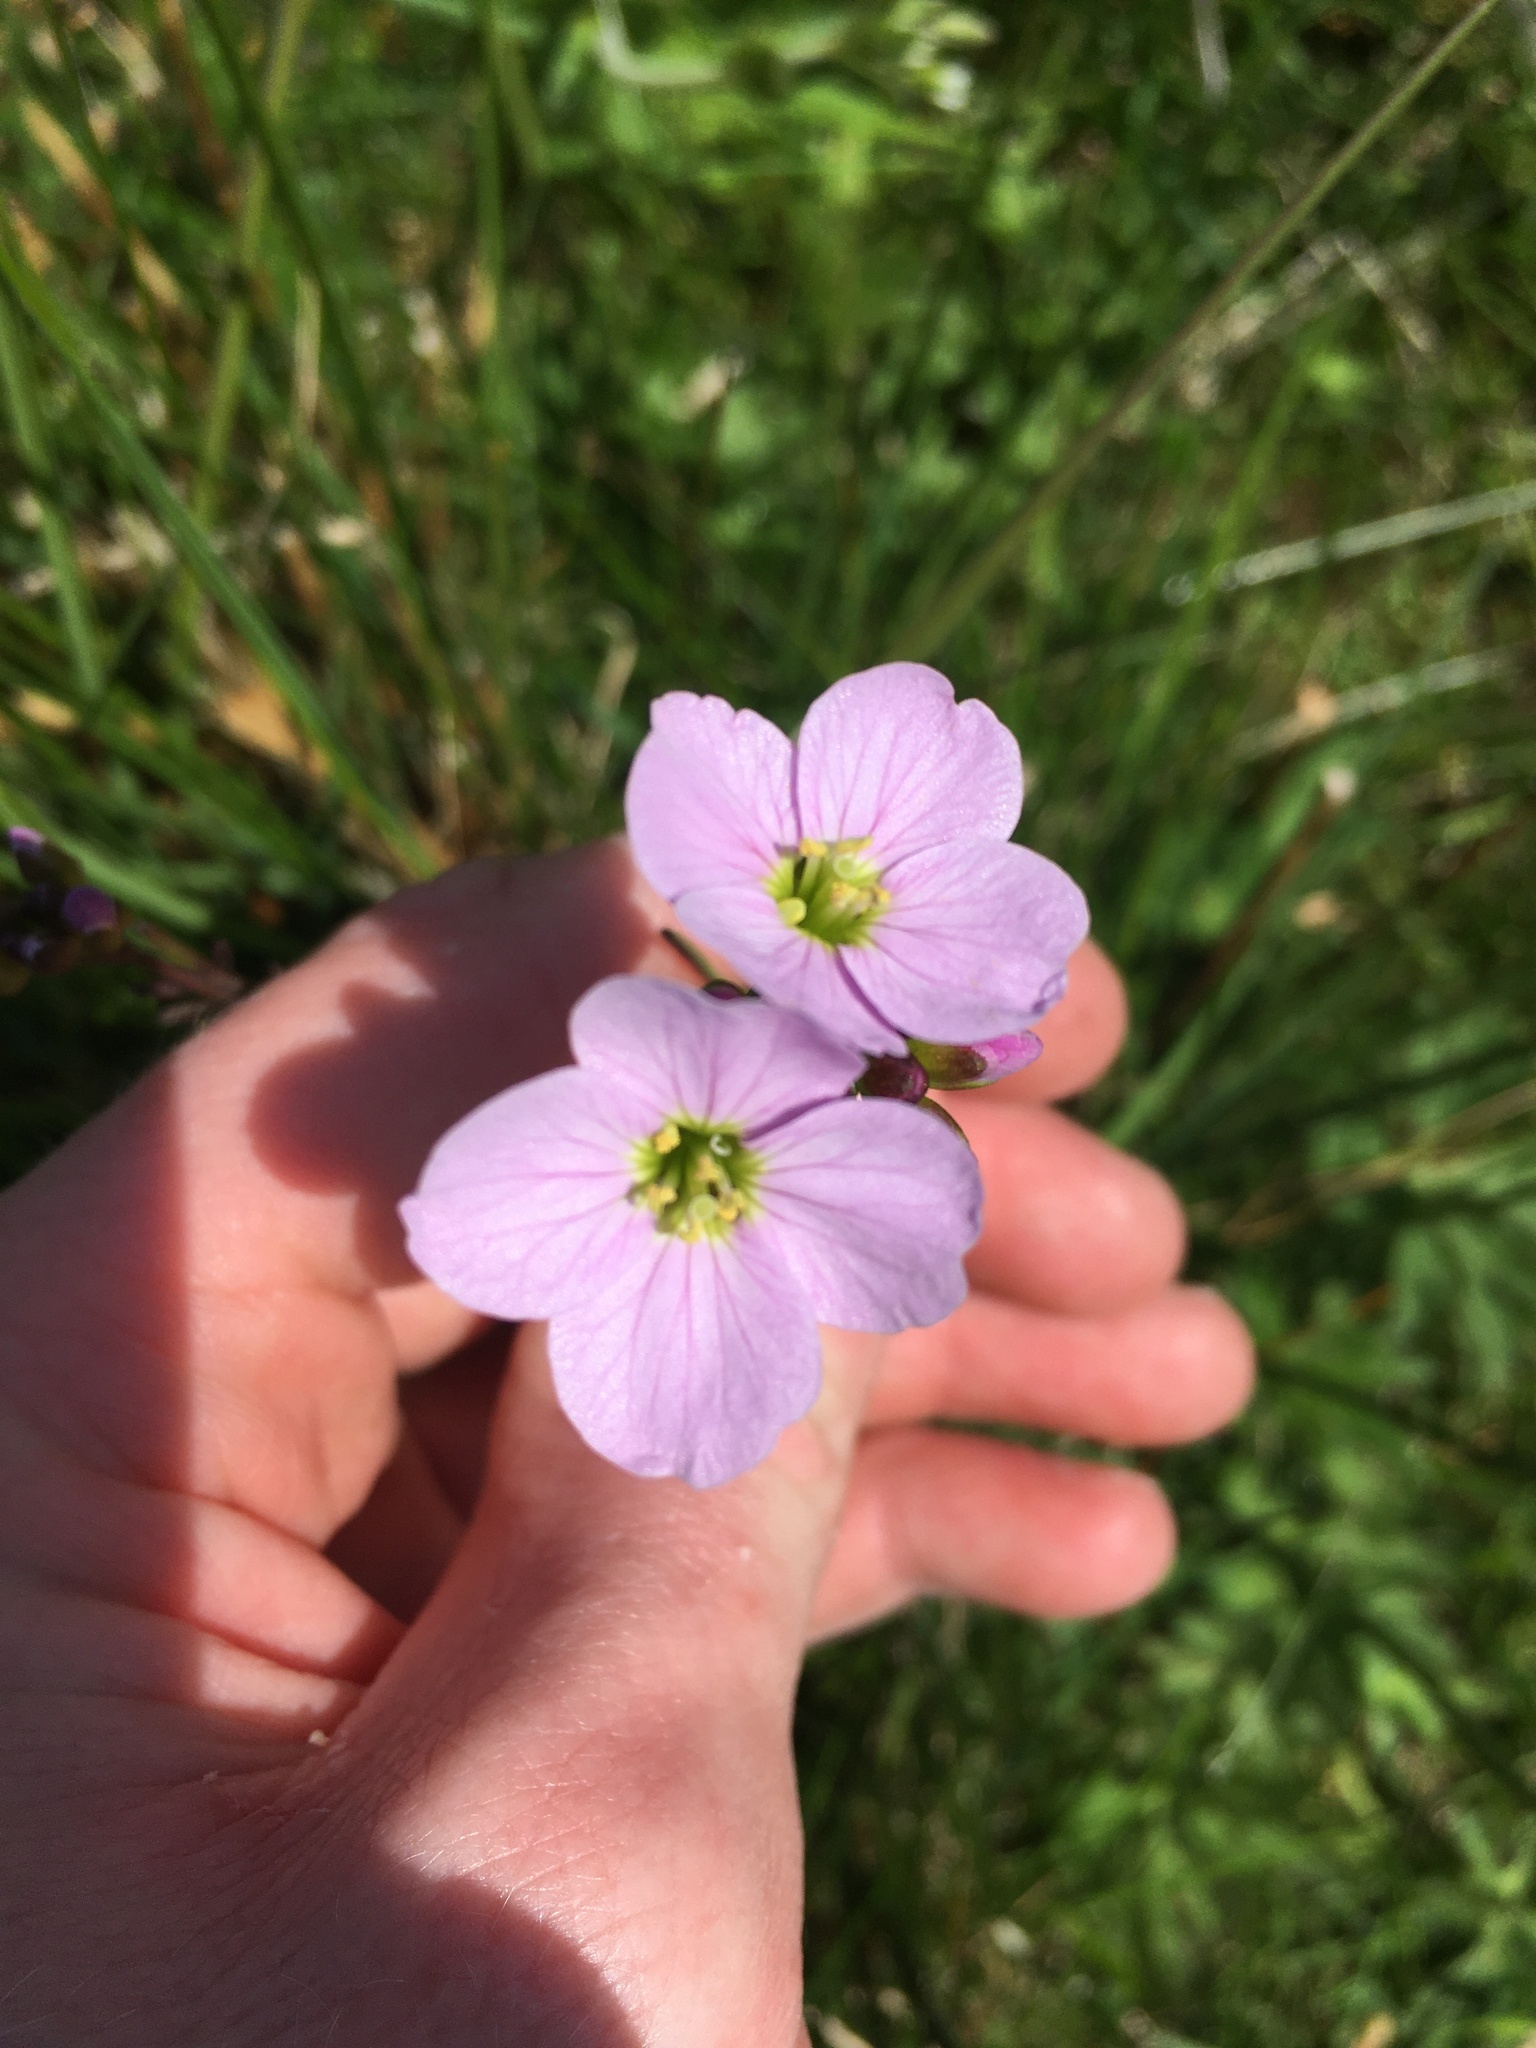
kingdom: Plantae
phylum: Tracheophyta
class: Magnoliopsida
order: Brassicales
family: Brassicaceae
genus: Cardamine
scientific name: Cardamine pratensis
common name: Cuckoo flower
